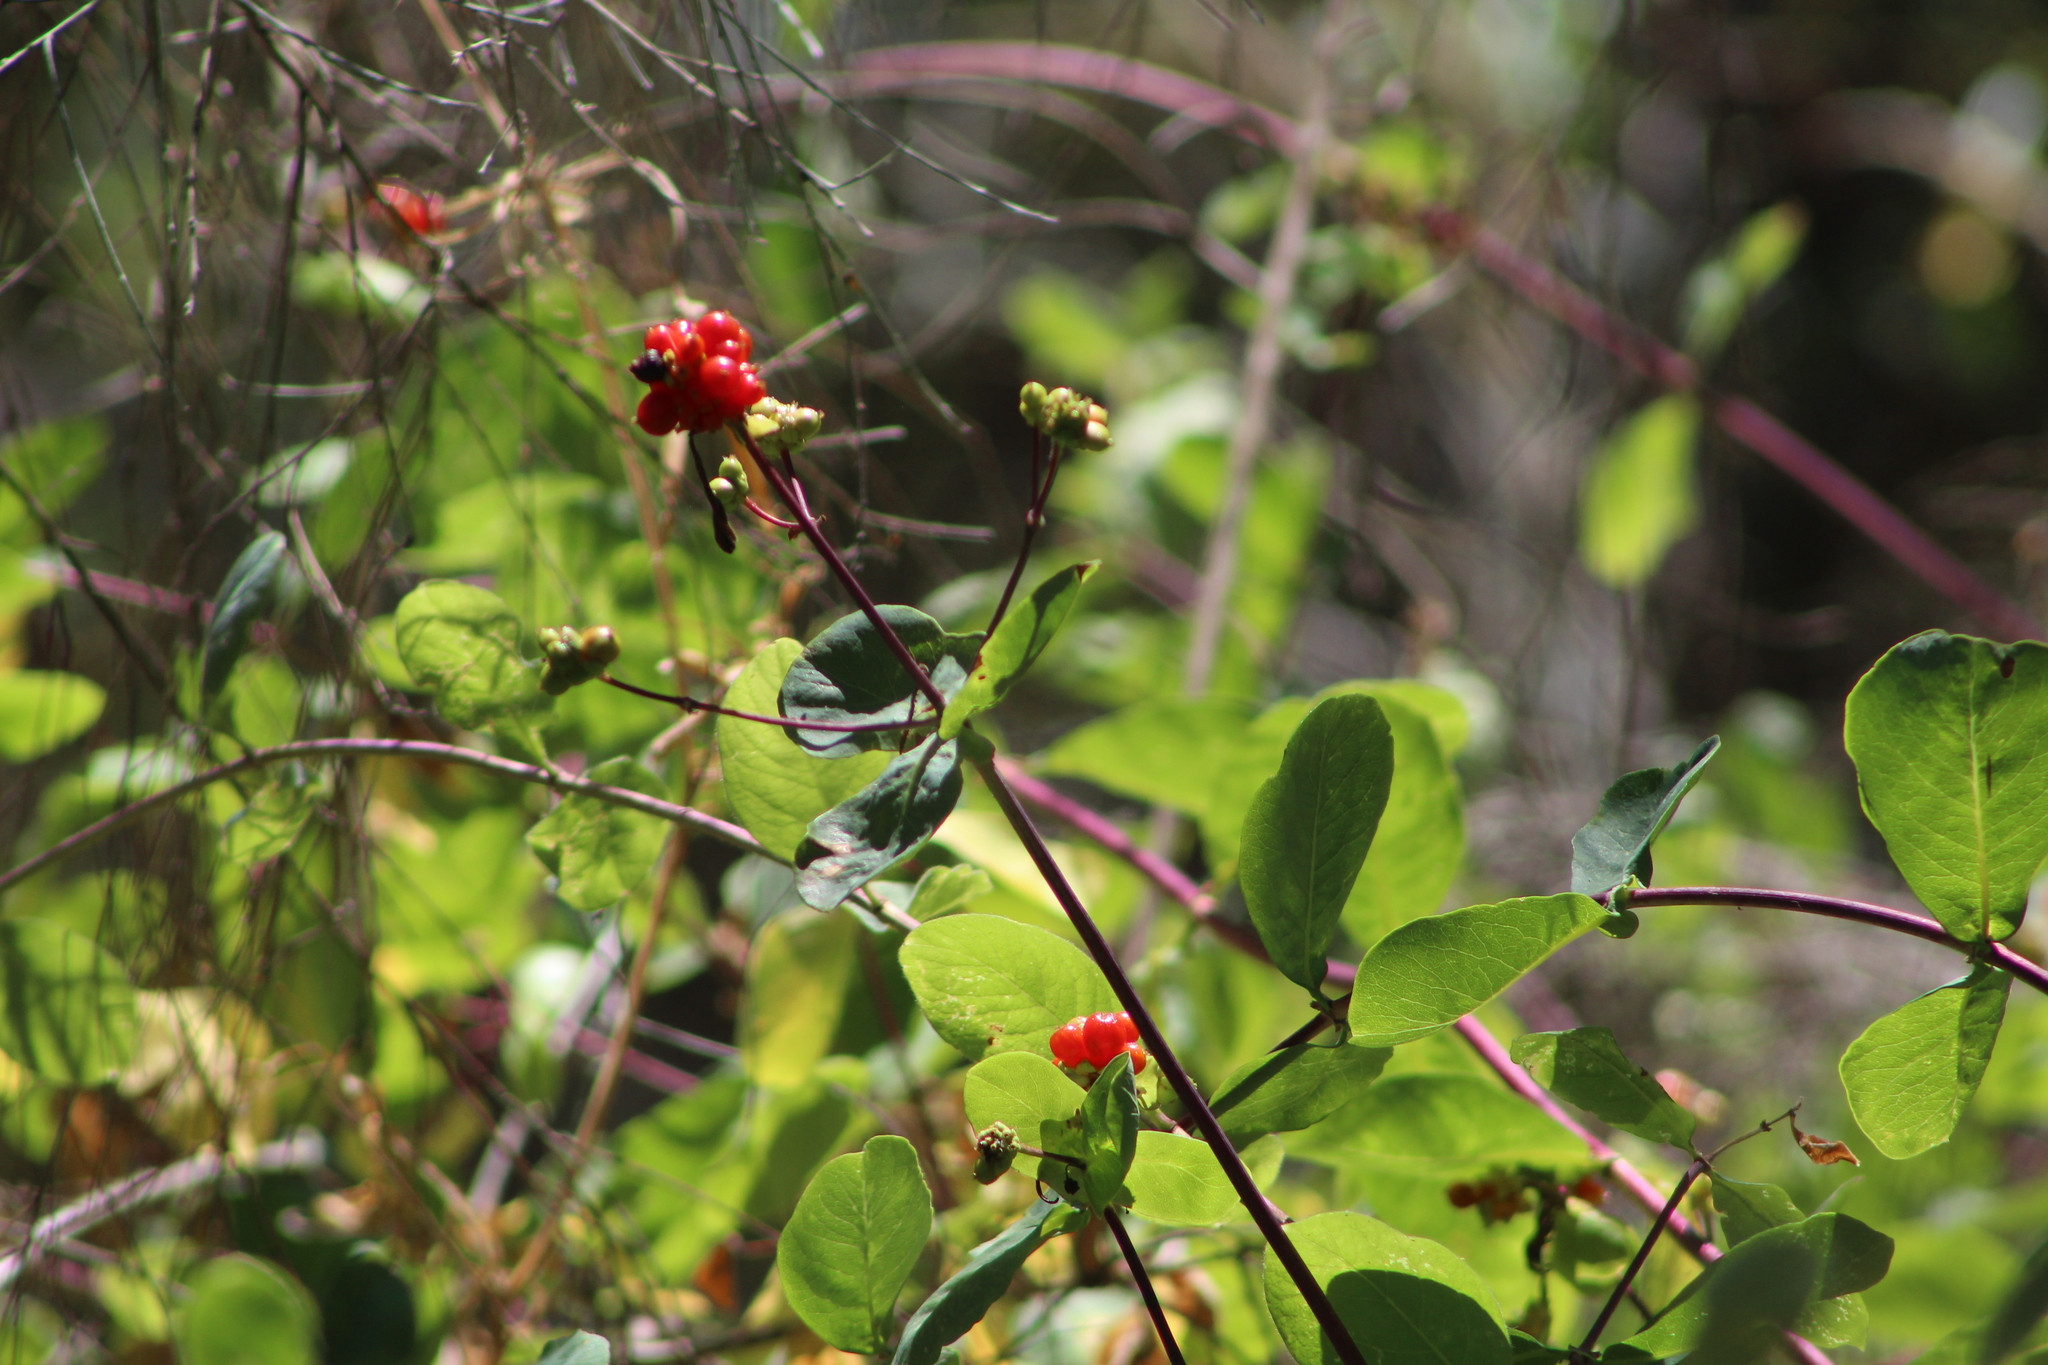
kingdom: Plantae
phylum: Tracheophyta
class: Magnoliopsida
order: Dipsacales
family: Caprifoliaceae
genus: Lonicera
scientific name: Lonicera periclymenum
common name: European honeysuckle
